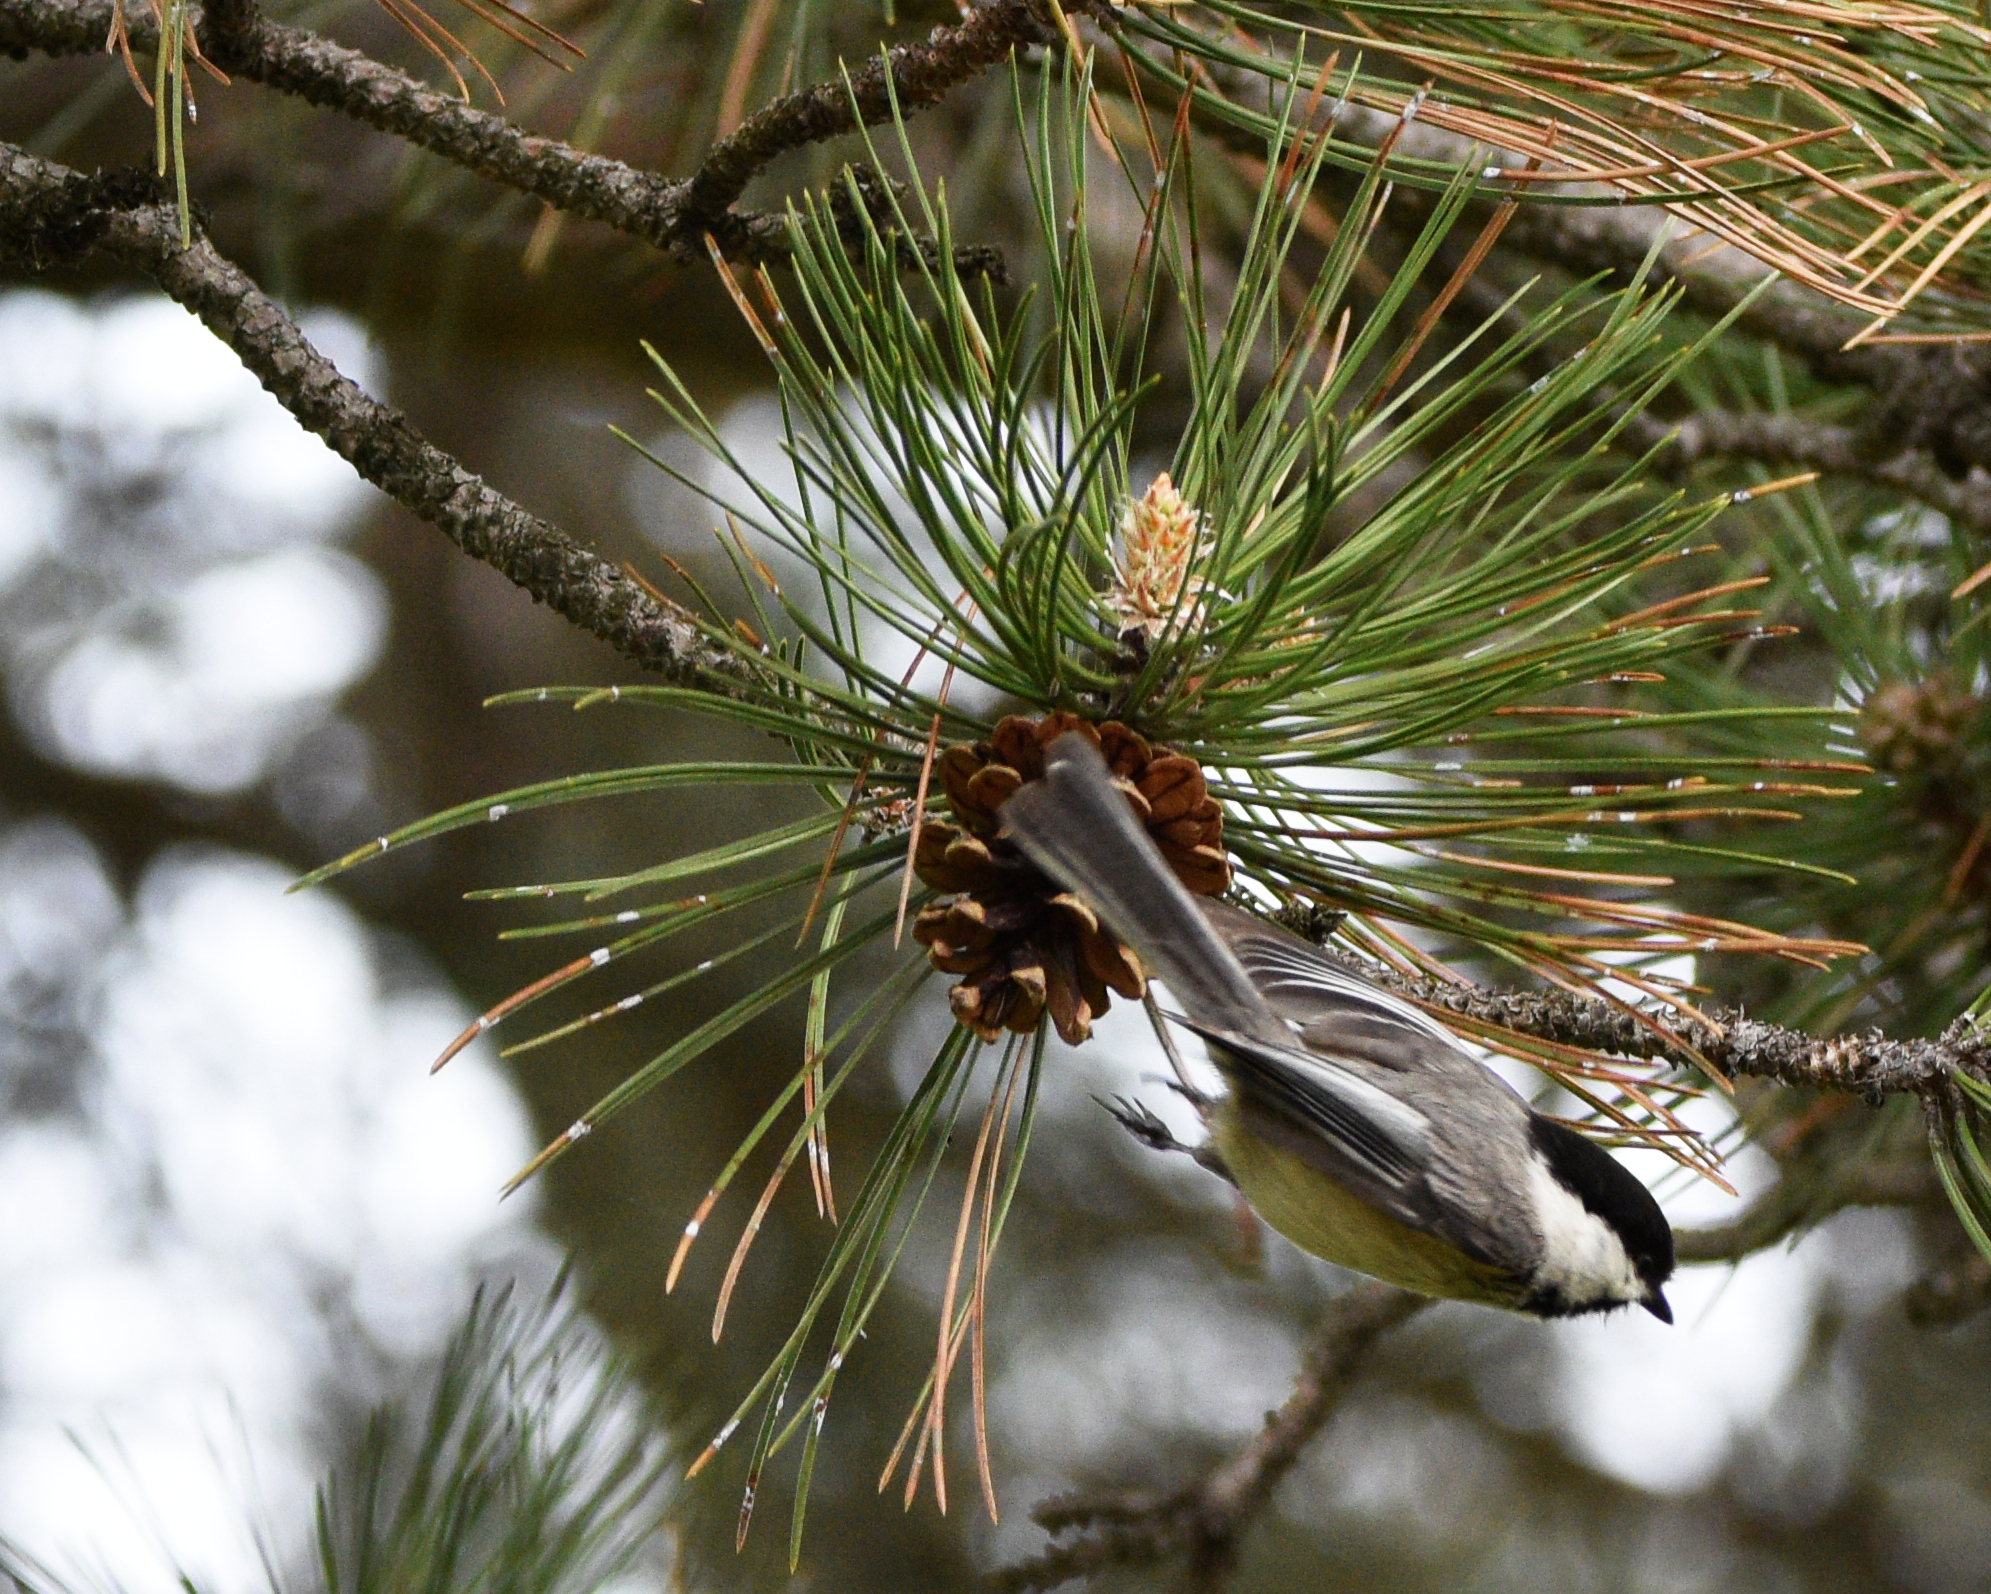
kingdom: Animalia
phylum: Chordata
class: Aves
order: Passeriformes
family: Paridae
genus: Poecile
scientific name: Poecile atricapillus
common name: Black-capped chickadee
